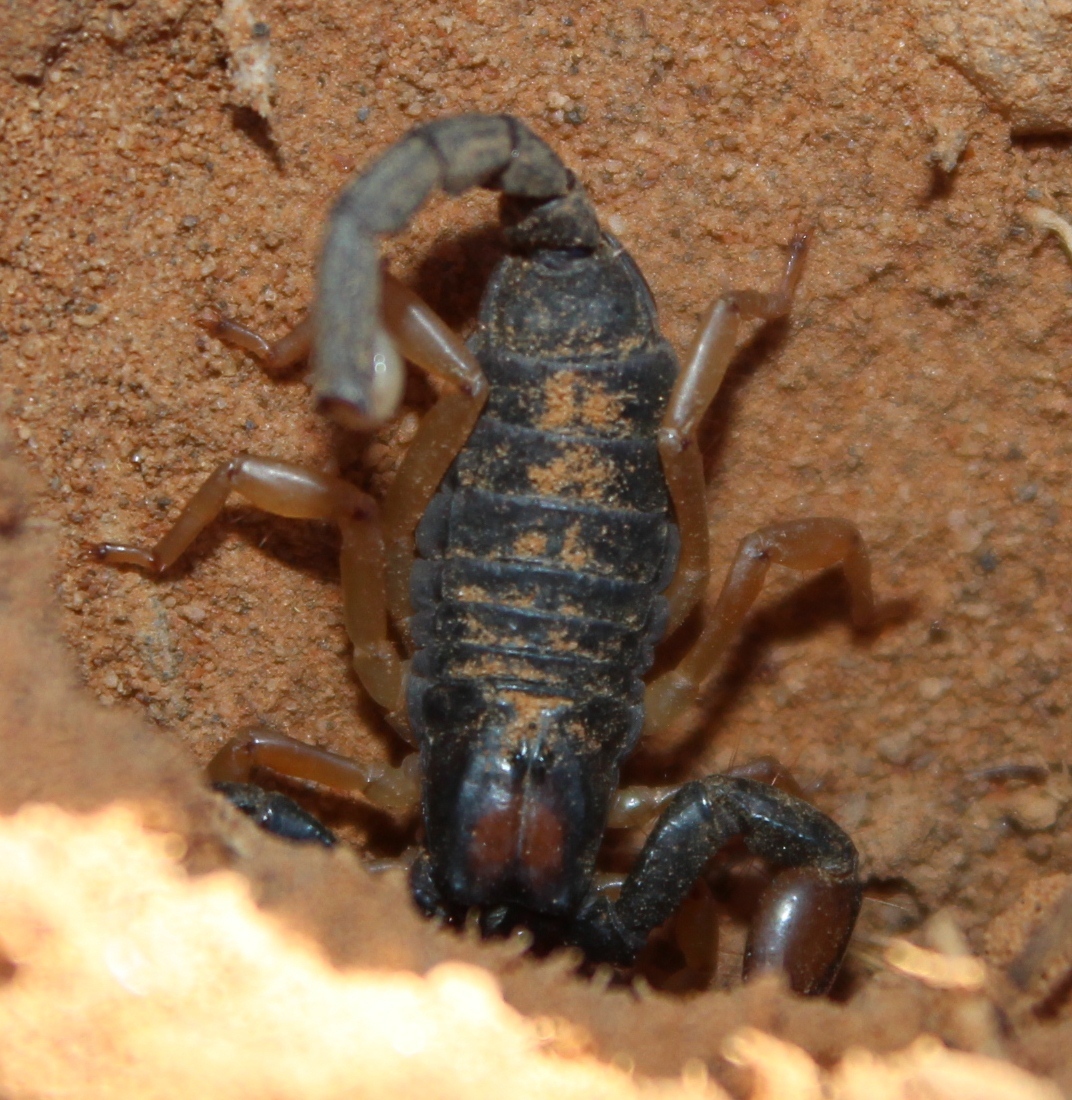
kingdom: Animalia
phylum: Arthropoda
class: Arachnida
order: Scorpiones
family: Scorpionidae
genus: Opistophthalmus
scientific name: Opistophthalmus pallipes
